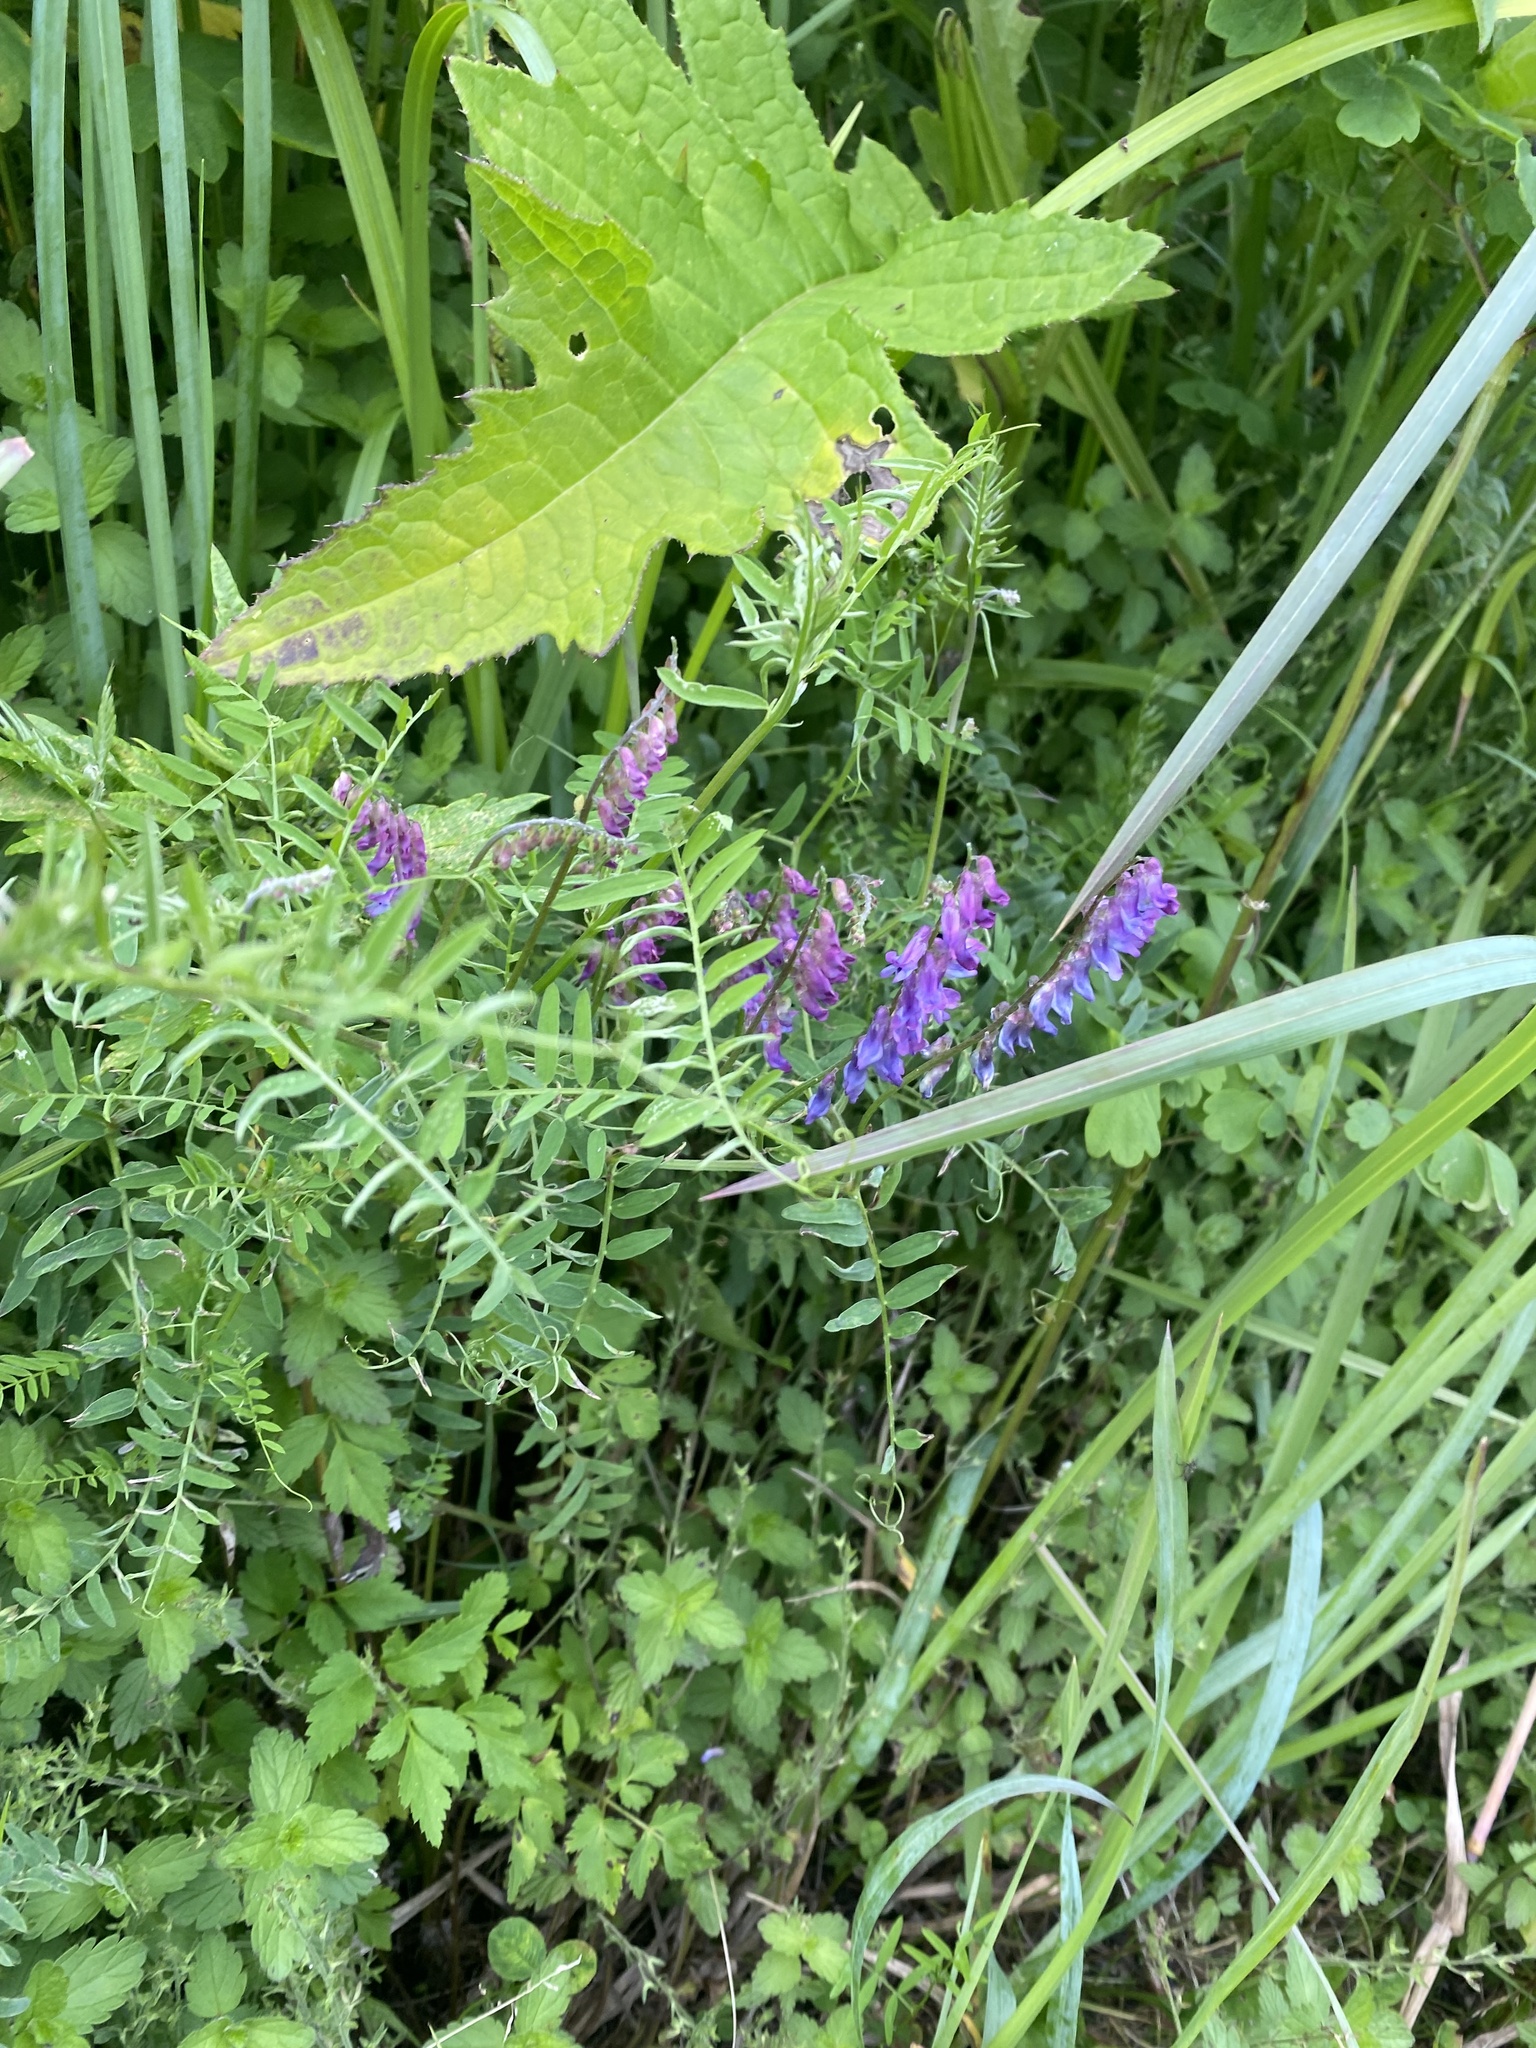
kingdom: Plantae
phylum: Tracheophyta
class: Magnoliopsida
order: Fabales
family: Fabaceae
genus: Vicia
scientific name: Vicia cracca
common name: Bird vetch
